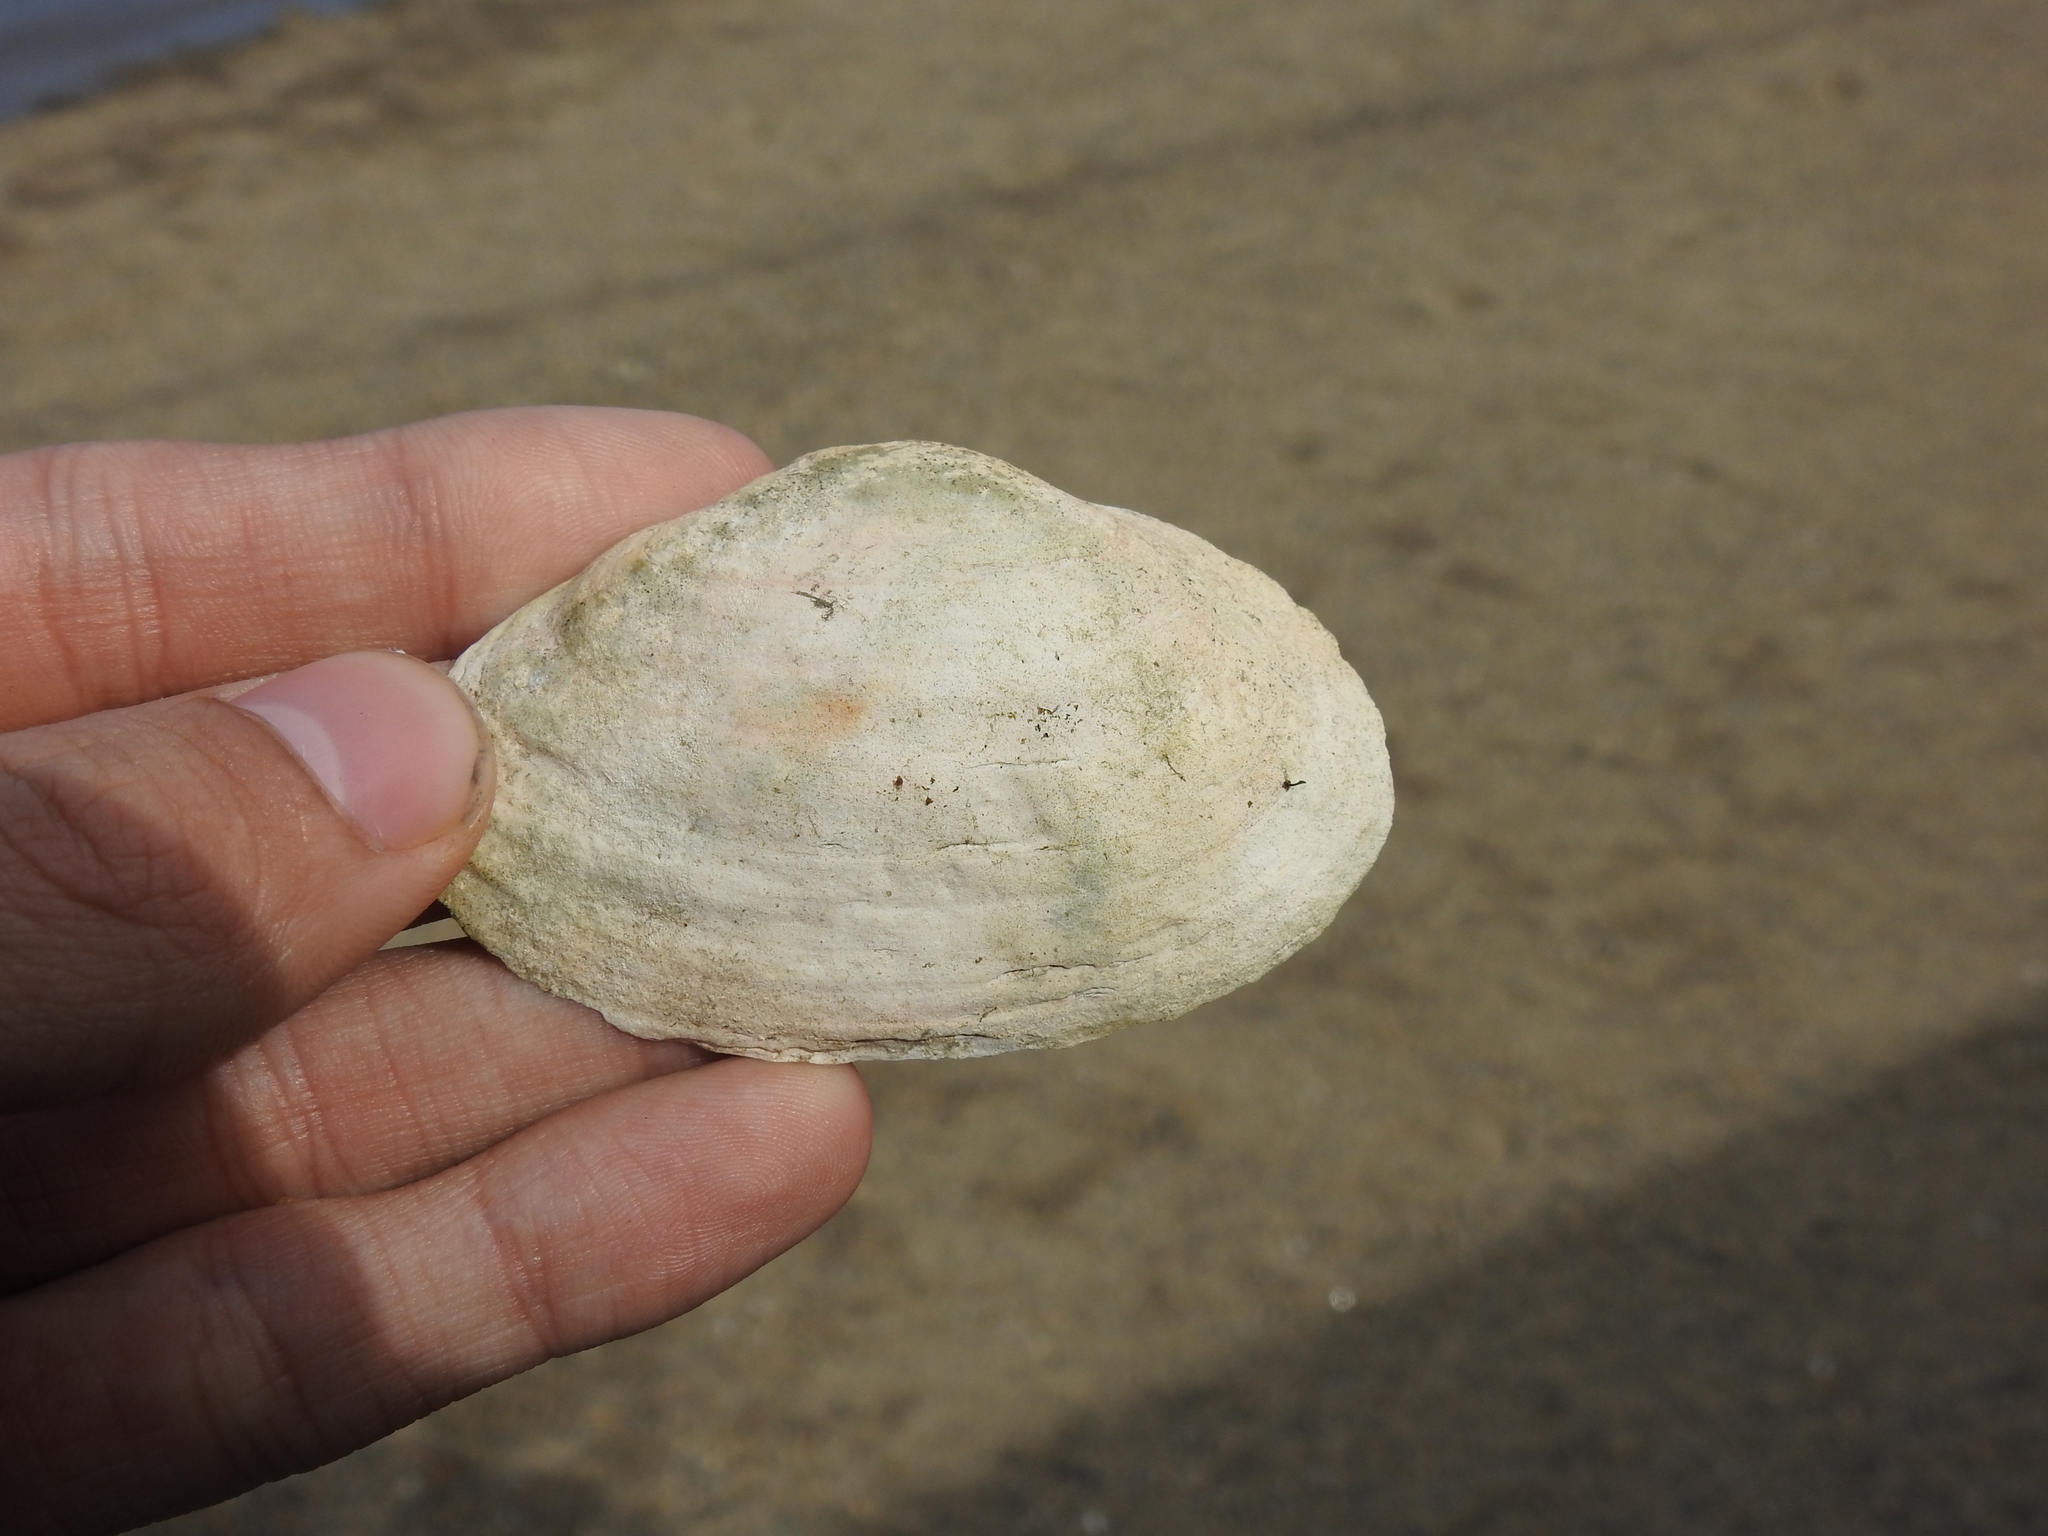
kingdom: Animalia
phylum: Mollusca
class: Bivalvia
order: Myida
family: Myidae
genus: Mya
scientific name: Mya arenaria
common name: Soft-shelled clam
